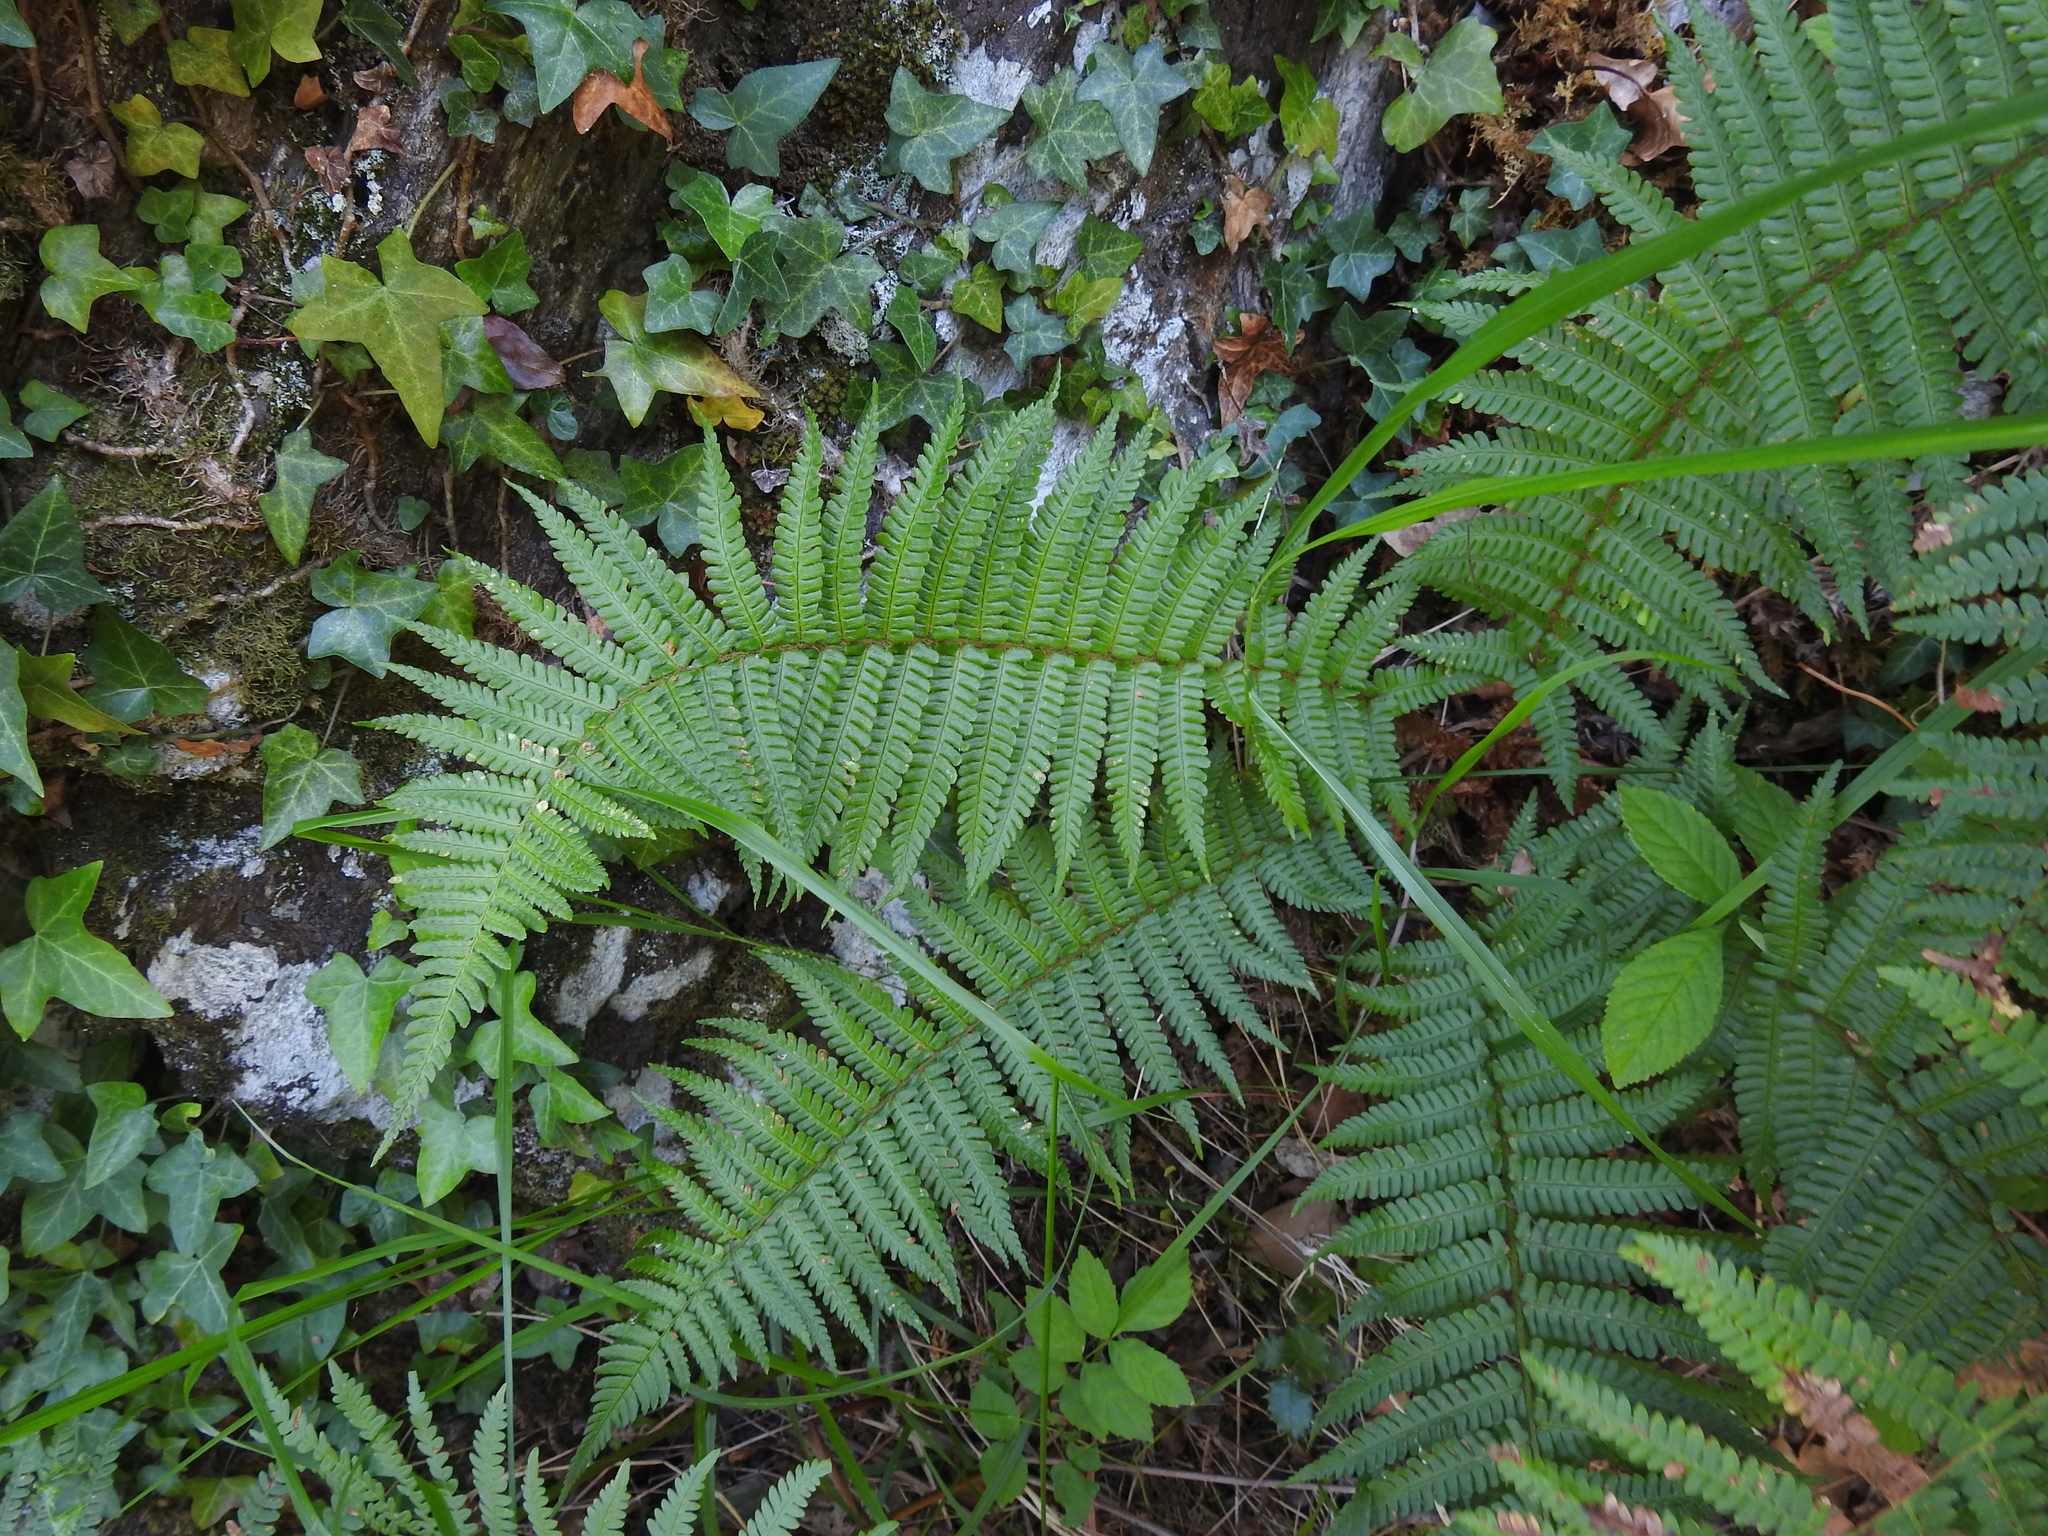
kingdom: Plantae
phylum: Tracheophyta
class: Polypodiopsida
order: Polypodiales
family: Dryopteridaceae
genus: Dryopteris
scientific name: Dryopteris cambrensis
